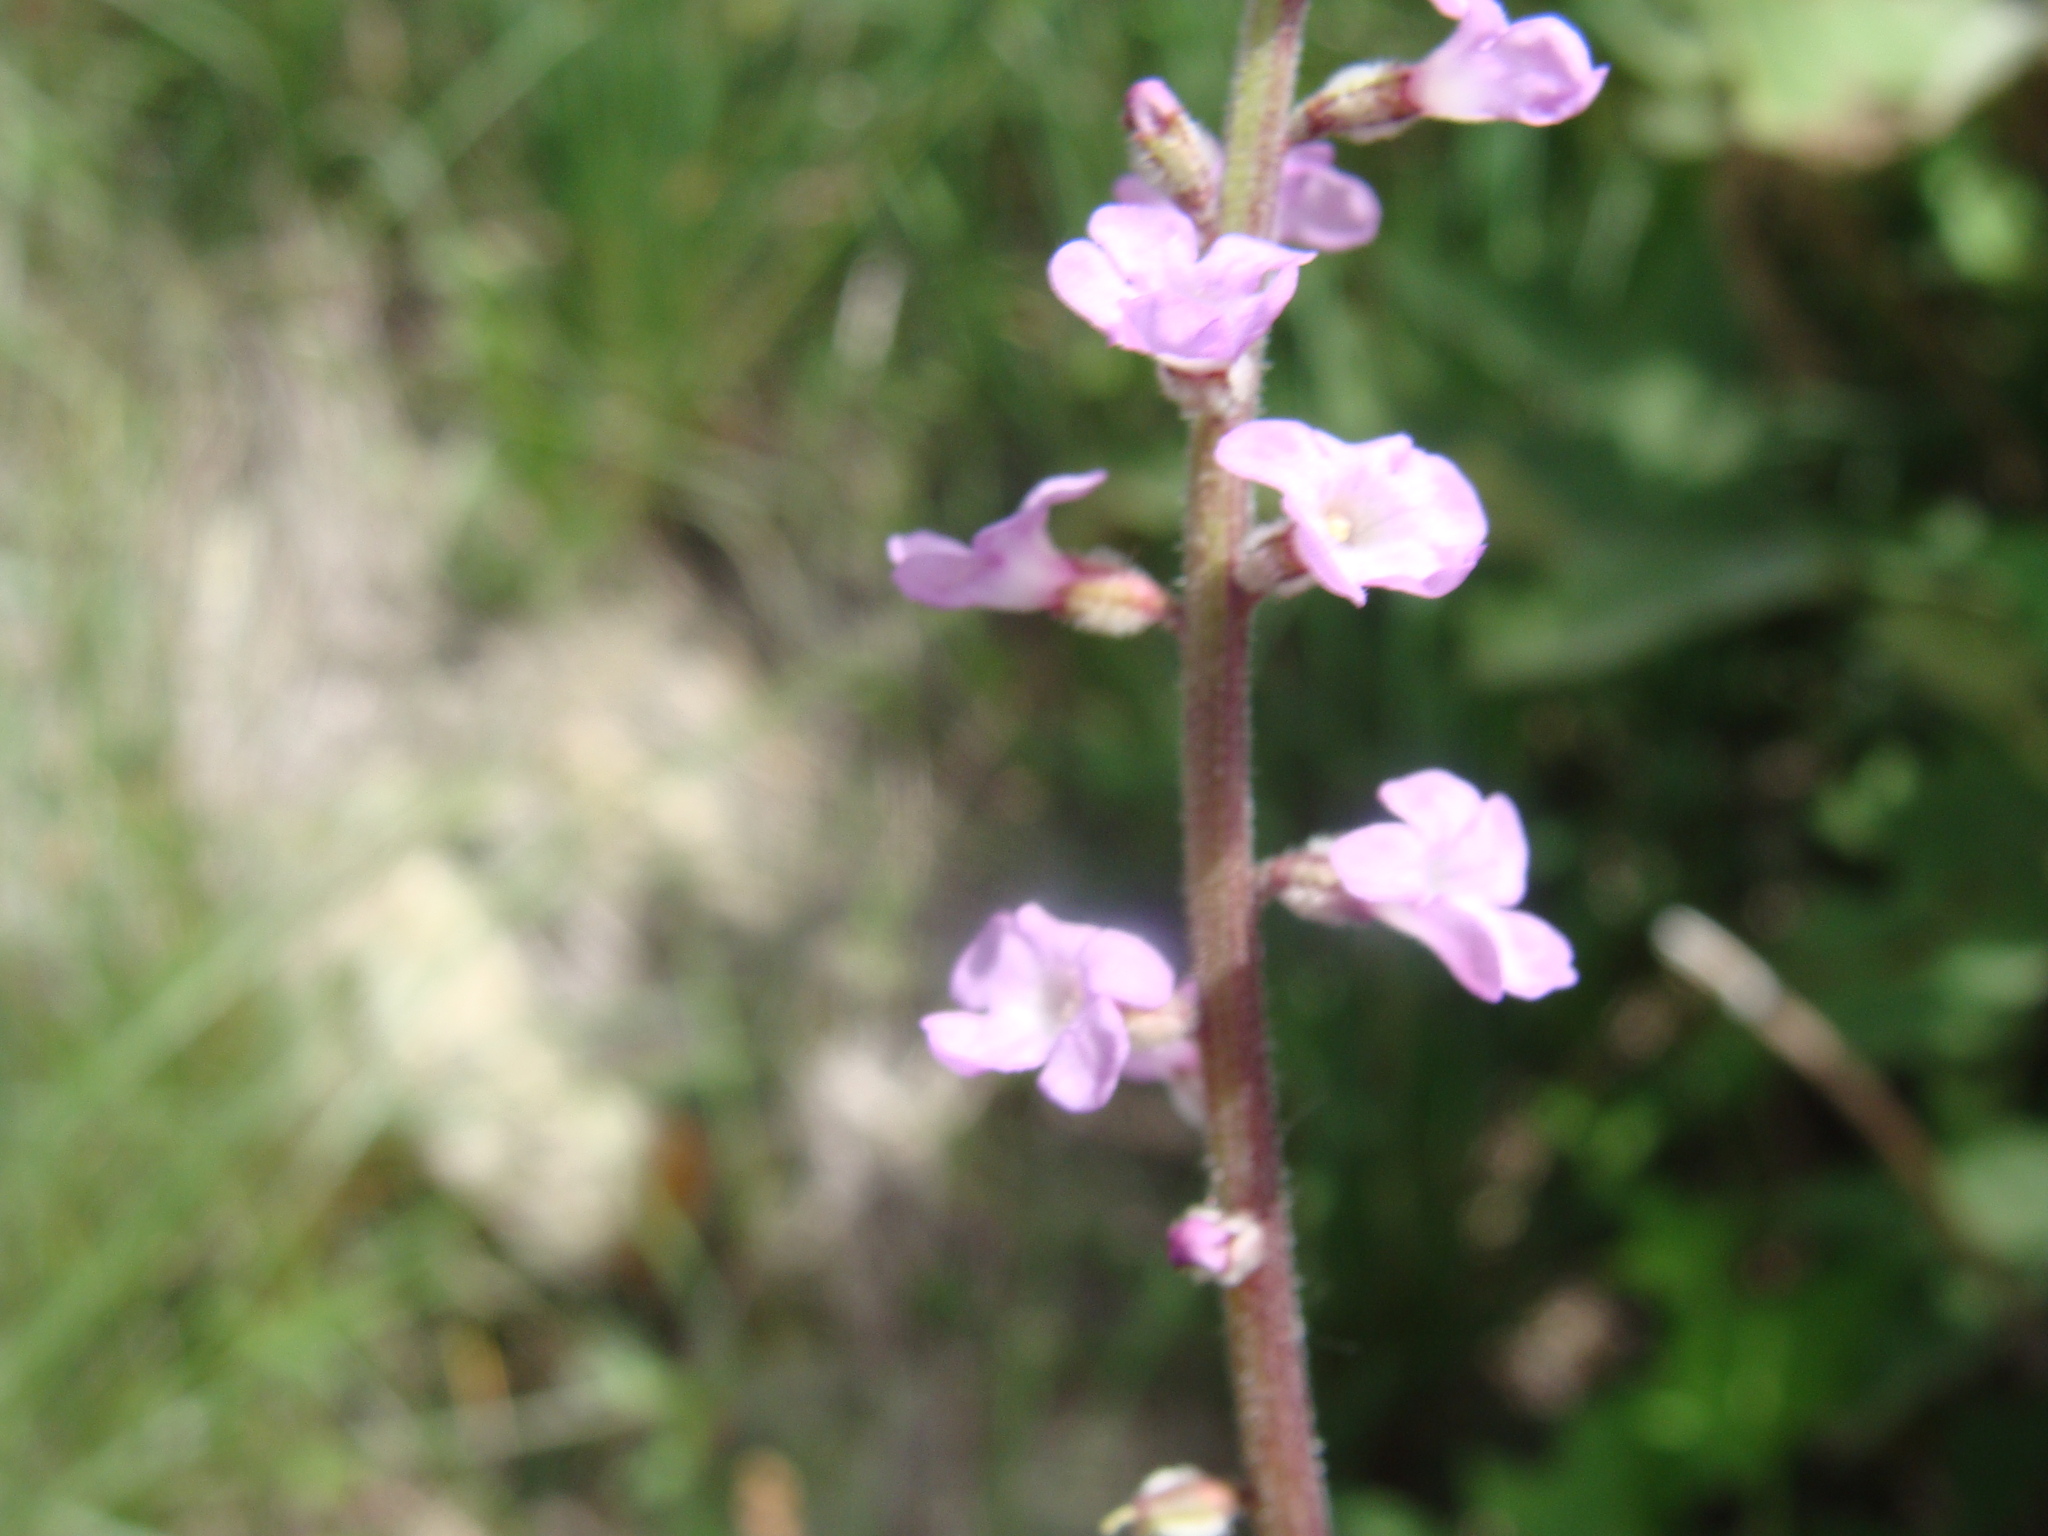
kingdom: Plantae
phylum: Tracheophyta
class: Magnoliopsida
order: Lamiales
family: Verbenaceae
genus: Priva
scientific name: Priva aspera
